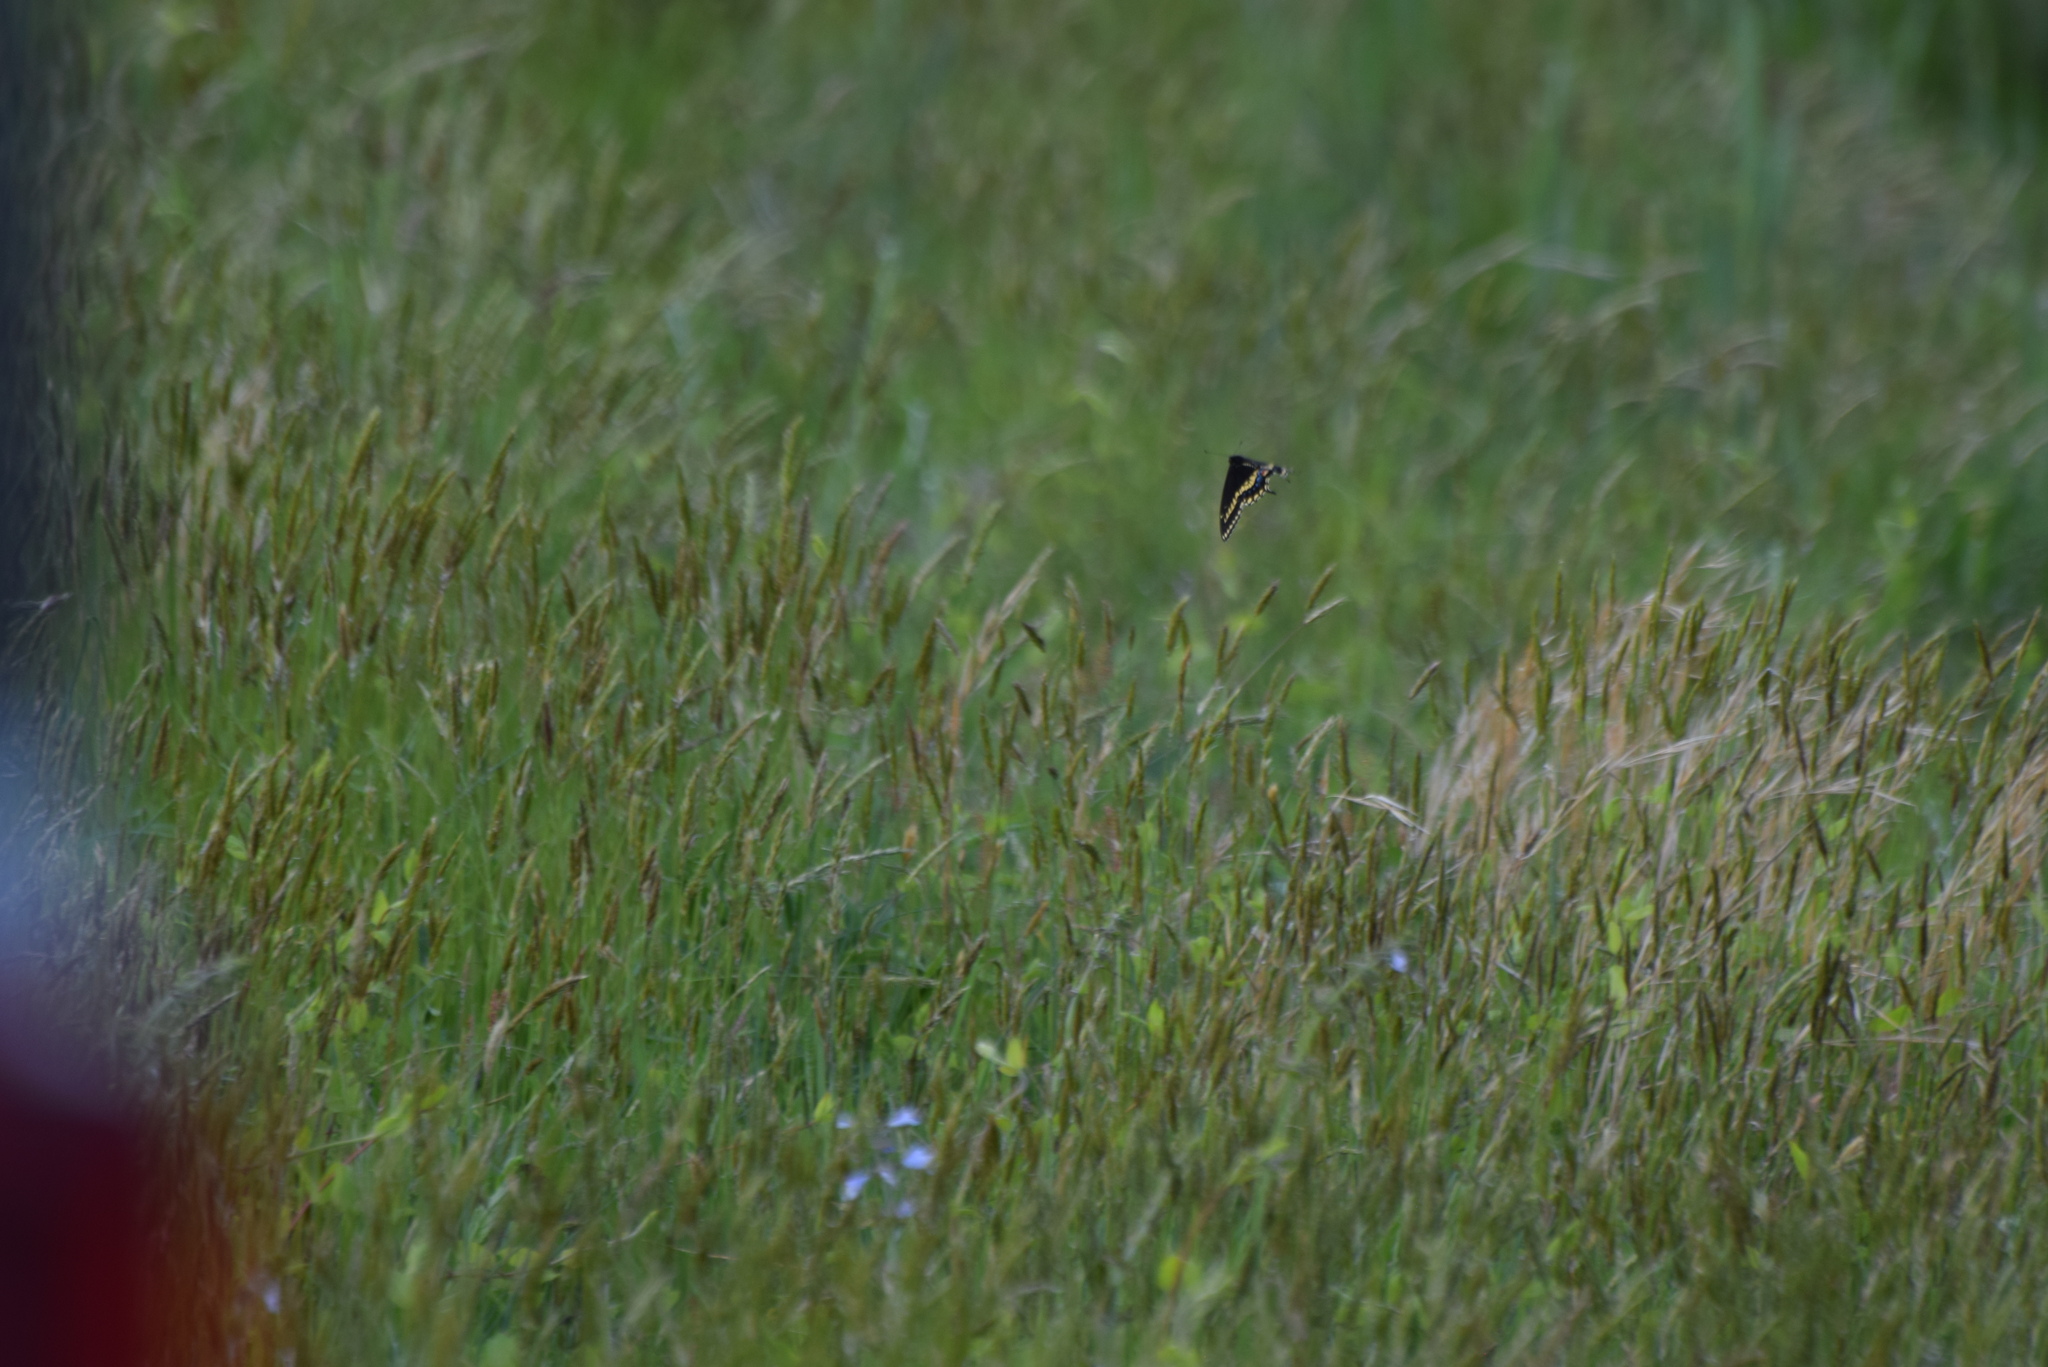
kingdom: Animalia
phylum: Arthropoda
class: Insecta
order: Lepidoptera
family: Papilionidae
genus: Papilio
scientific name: Papilio polyxenes
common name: Black swallowtail
